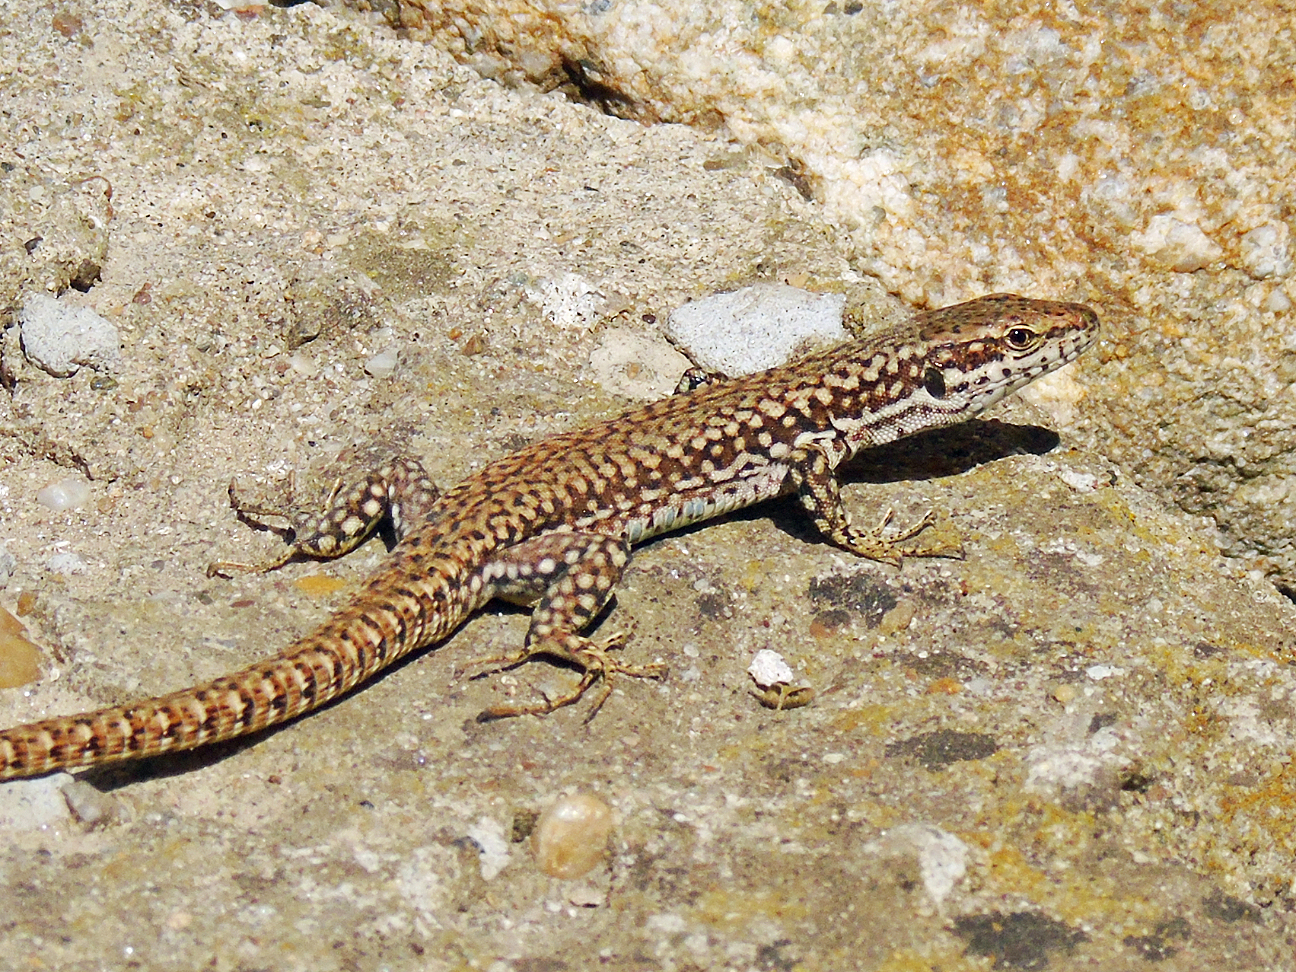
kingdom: Animalia
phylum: Chordata
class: Squamata
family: Lacertidae
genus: Podarcis
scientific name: Podarcis muralis
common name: Common wall lizard
